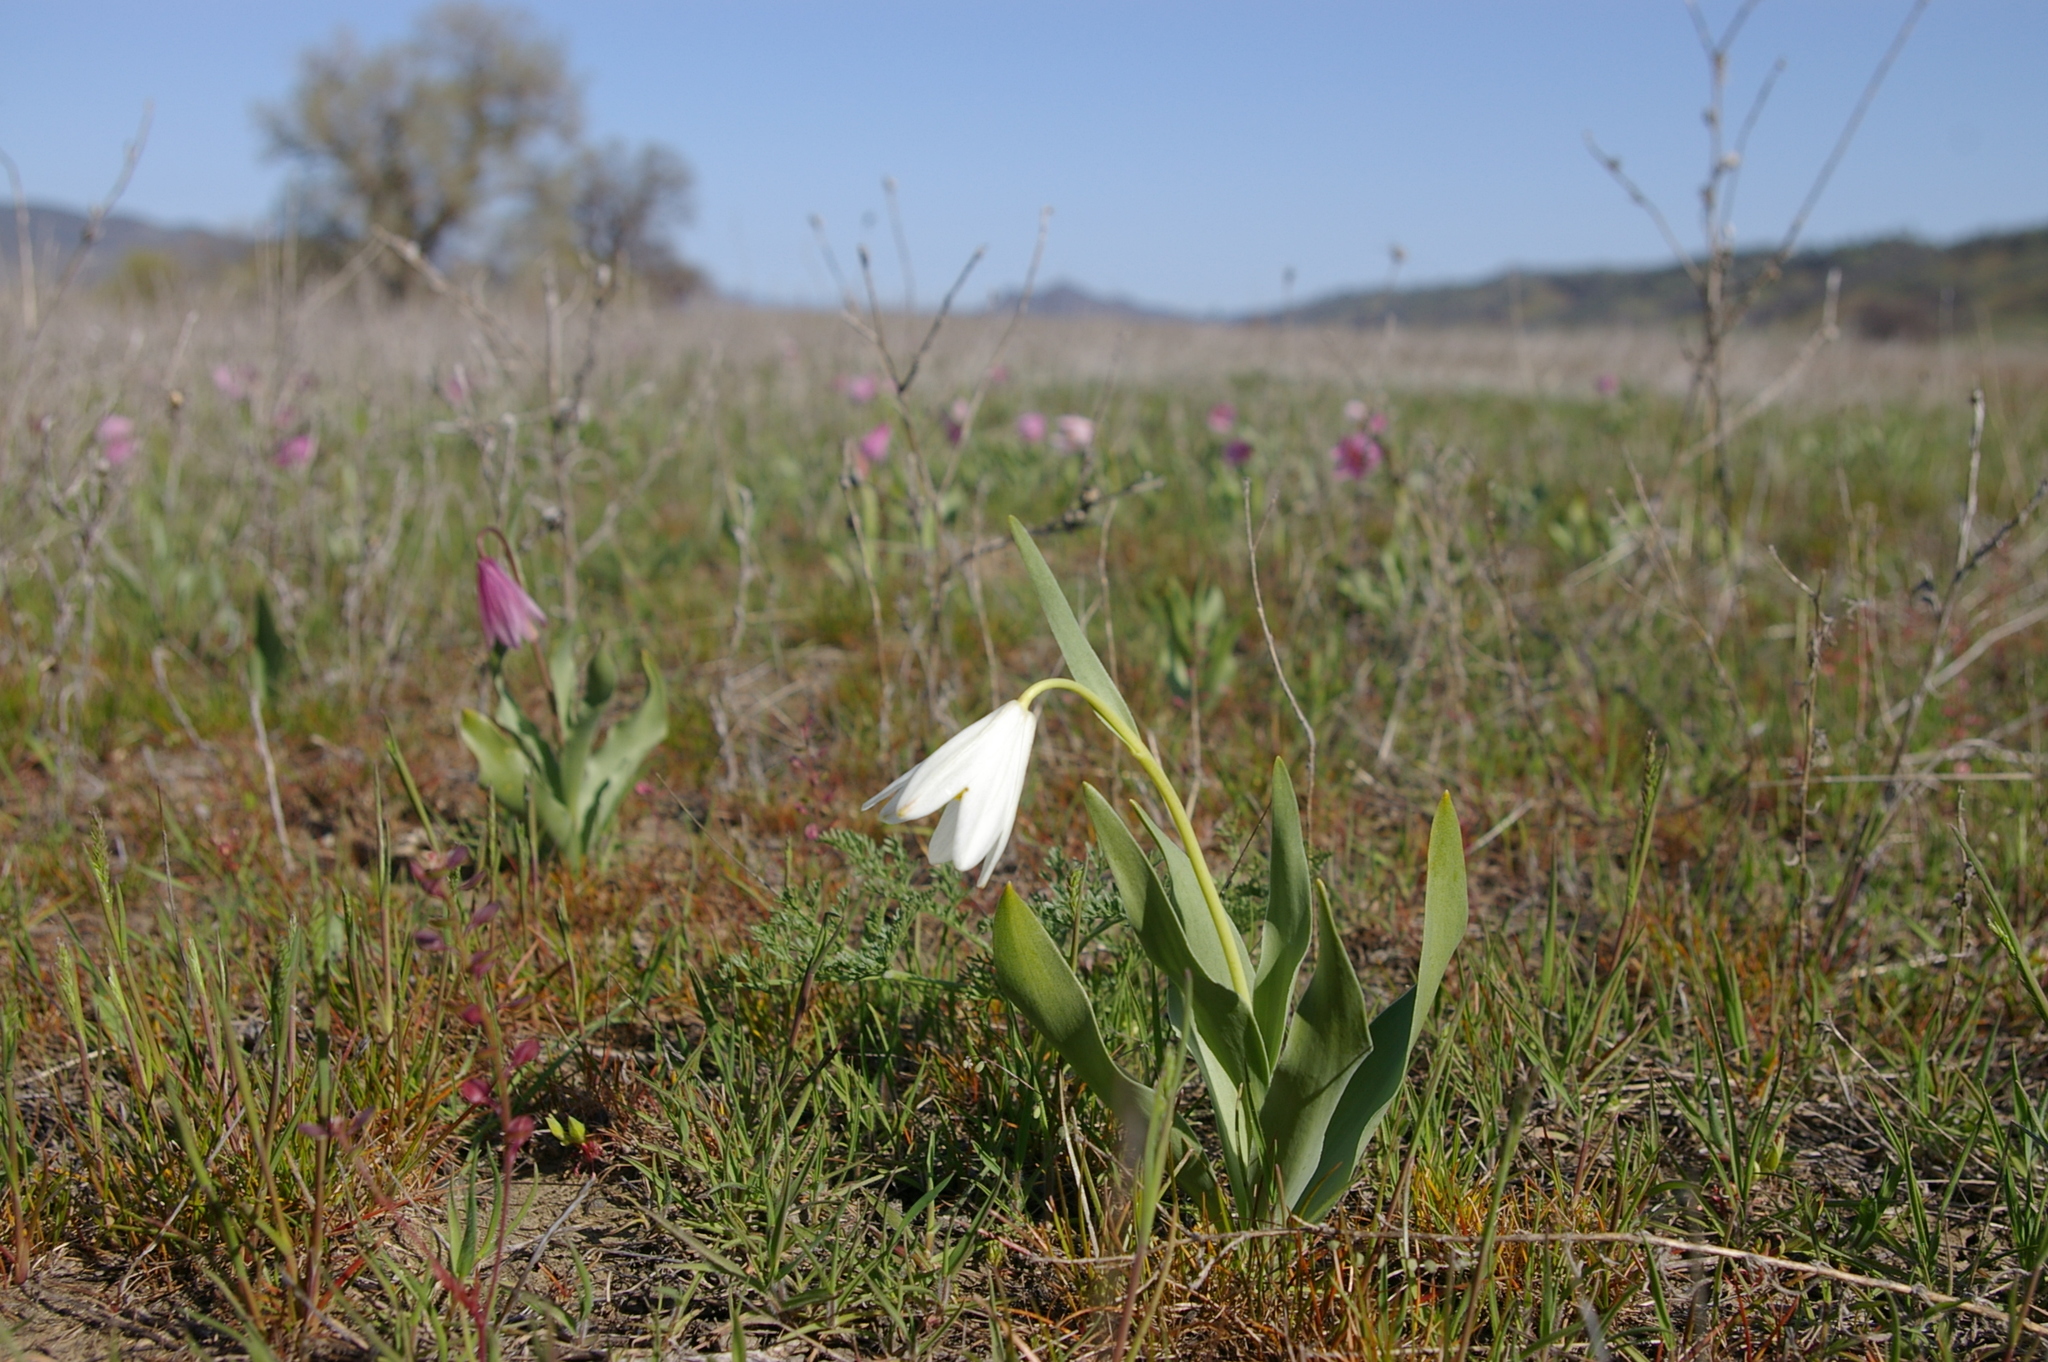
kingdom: Plantae
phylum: Tracheophyta
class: Liliopsida
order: Liliales
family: Liliaceae
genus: Fritillaria
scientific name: Fritillaria pluriflora
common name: Adobe-lily
